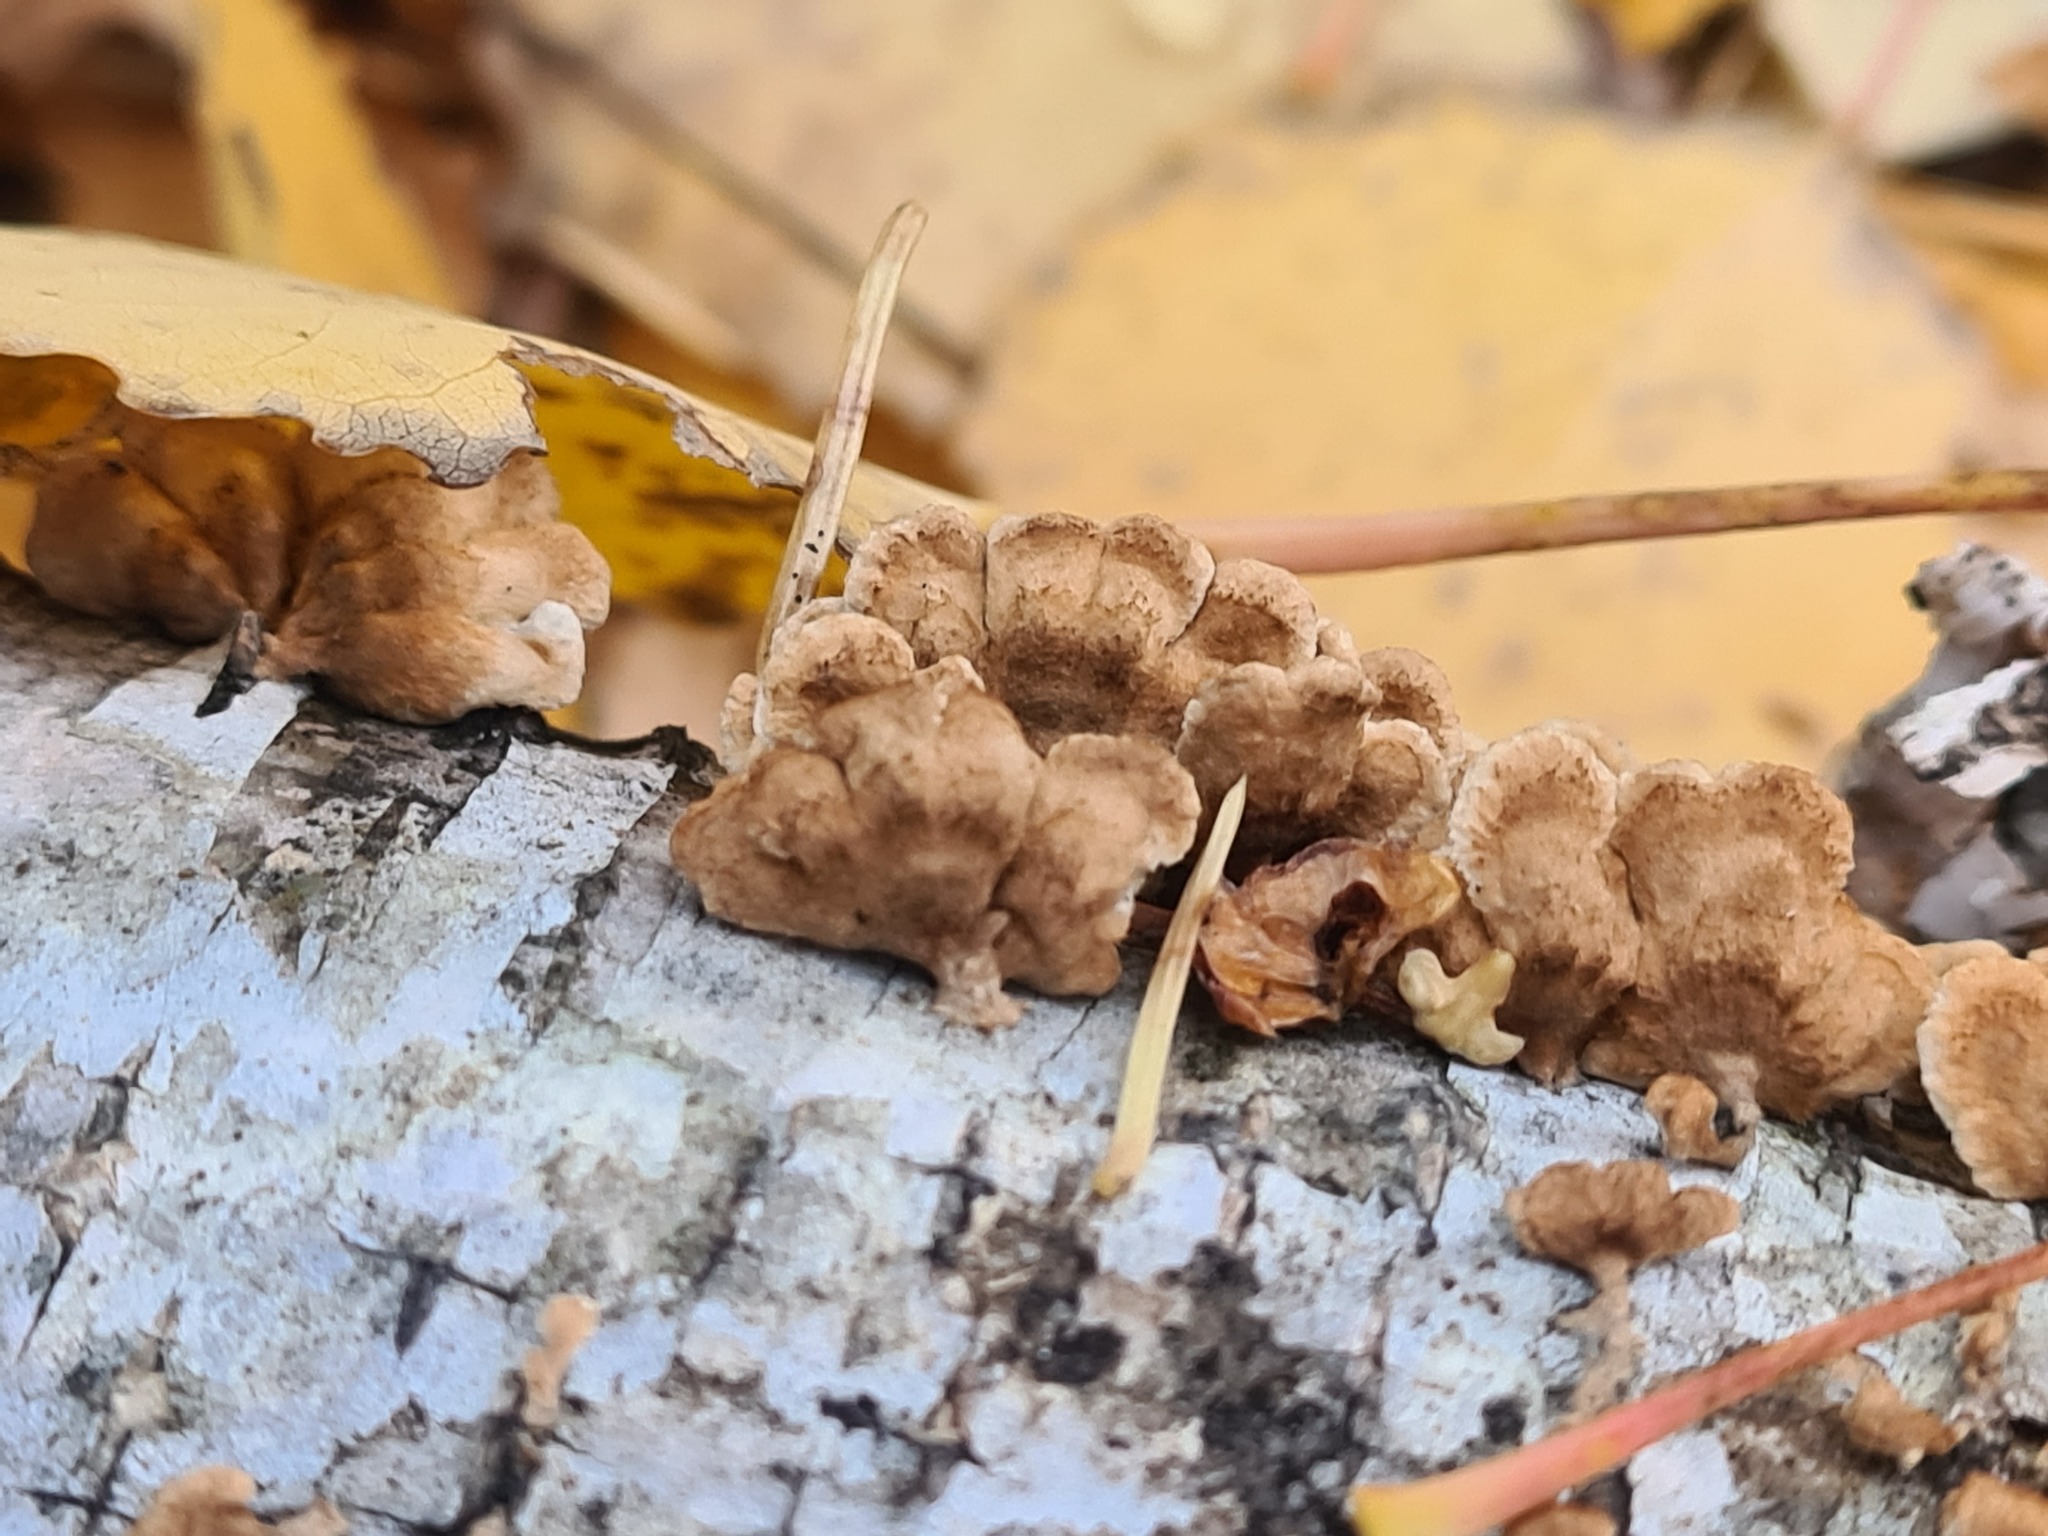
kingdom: Fungi
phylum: Basidiomycota
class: Agaricomycetes
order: Amylocorticiales
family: Amylocorticiaceae
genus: Plicaturopsis
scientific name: Plicaturopsis crispa
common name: Crimped gill
